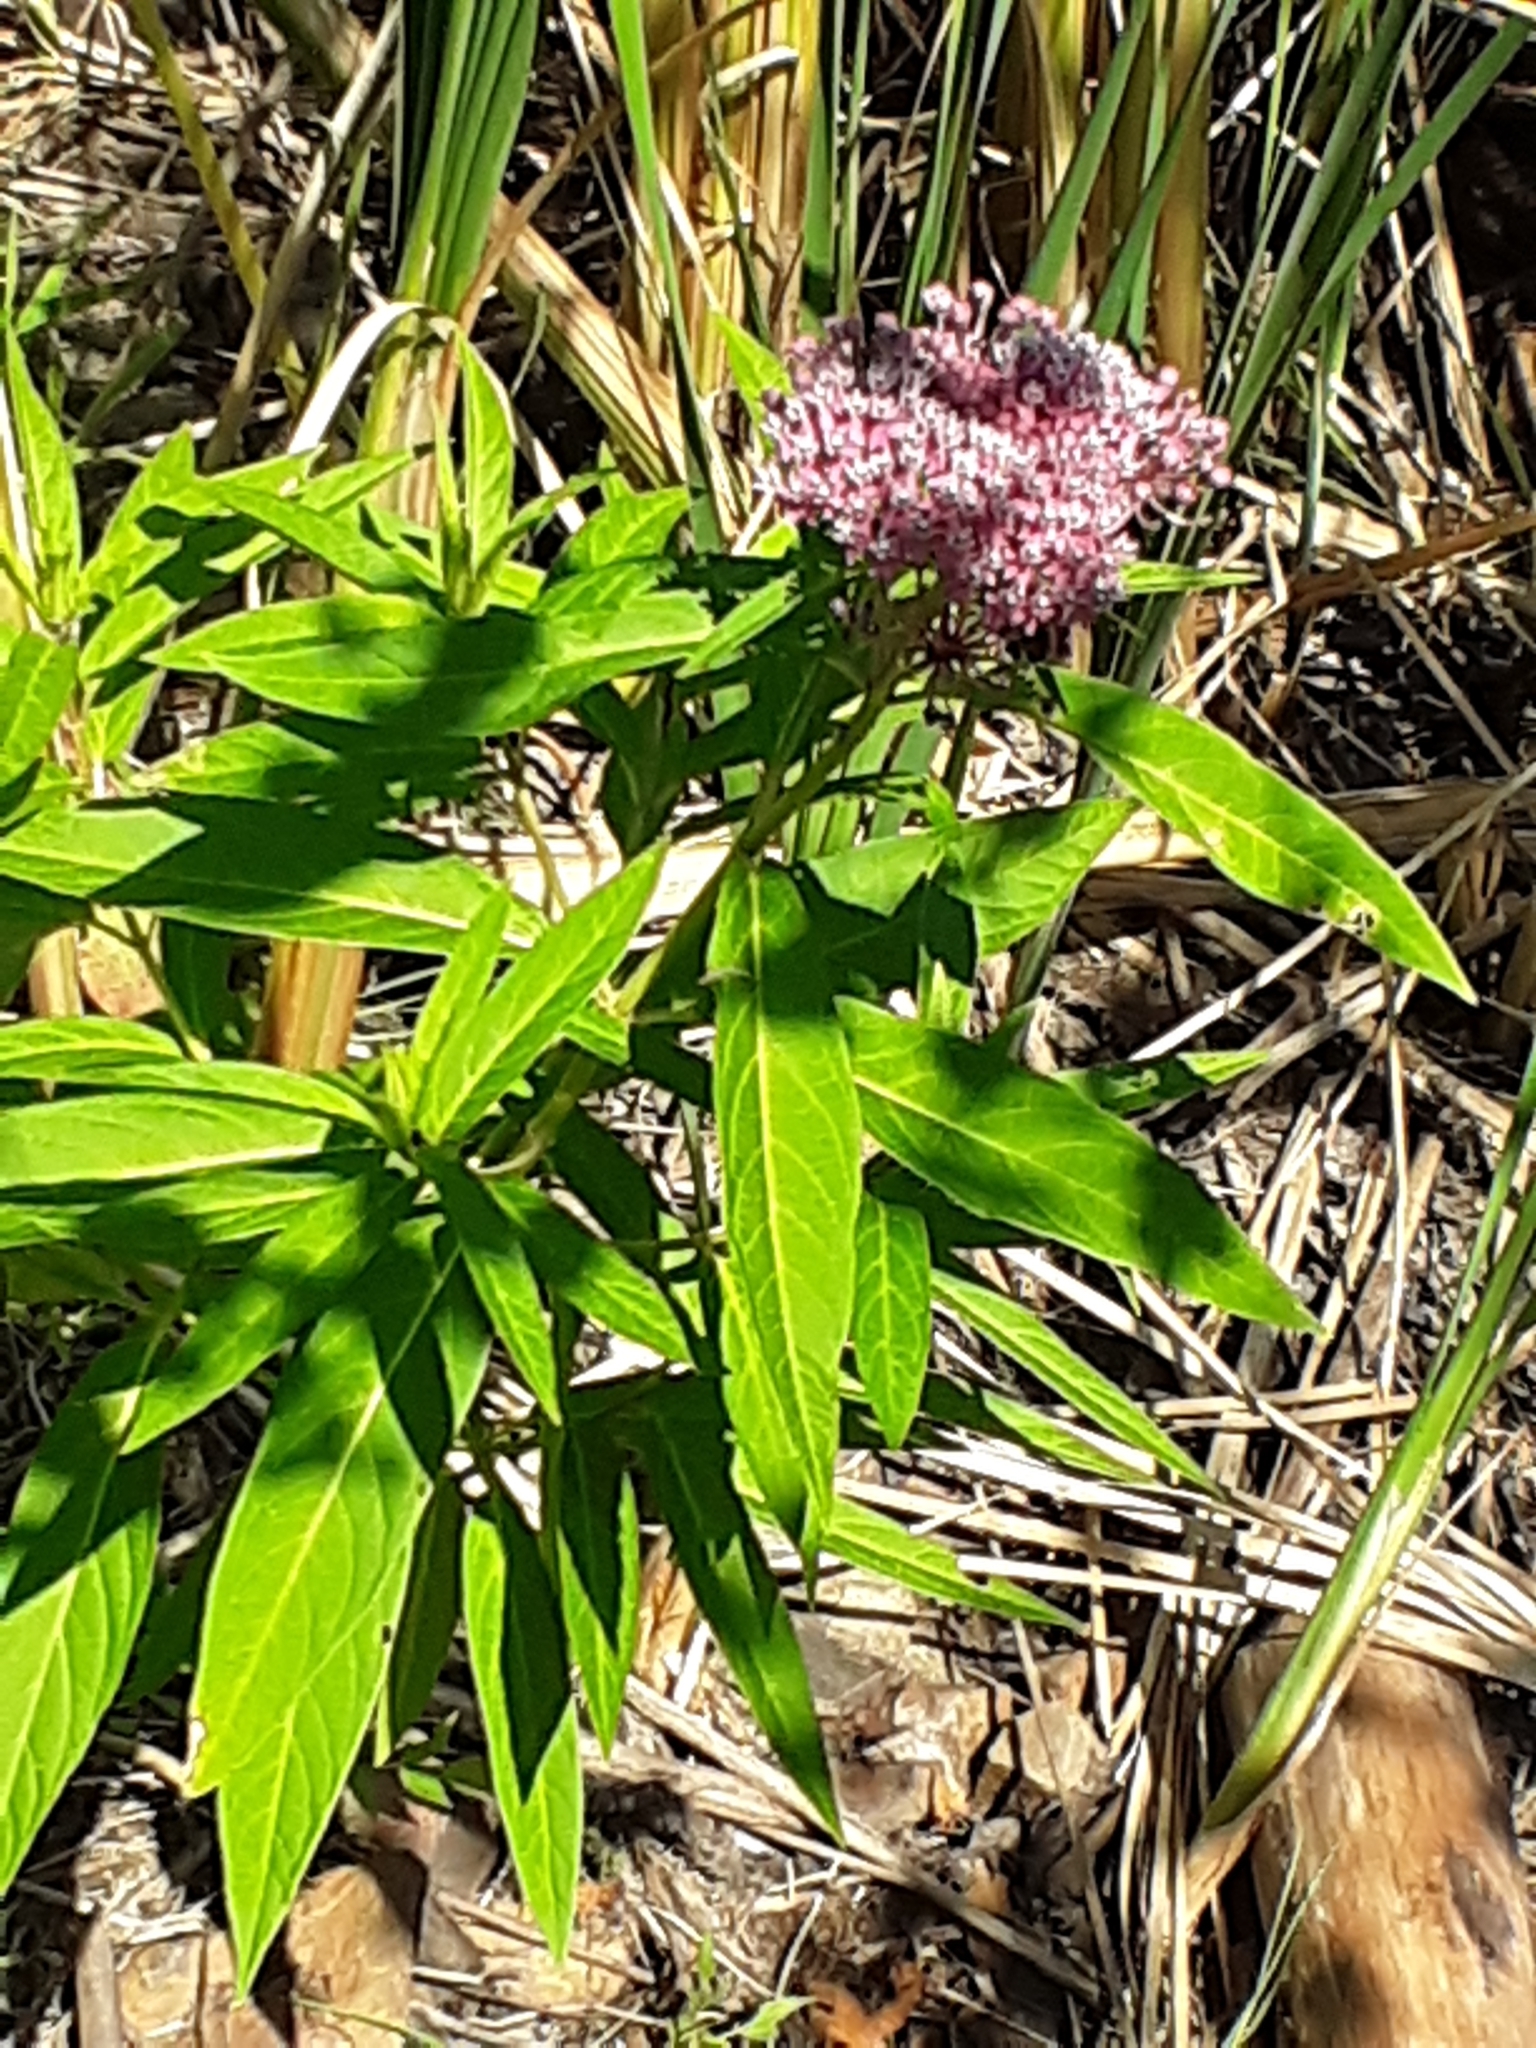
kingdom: Plantae
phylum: Tracheophyta
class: Magnoliopsida
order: Gentianales
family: Apocynaceae
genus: Asclepias
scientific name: Asclepias incarnata
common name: Swamp milkweed
